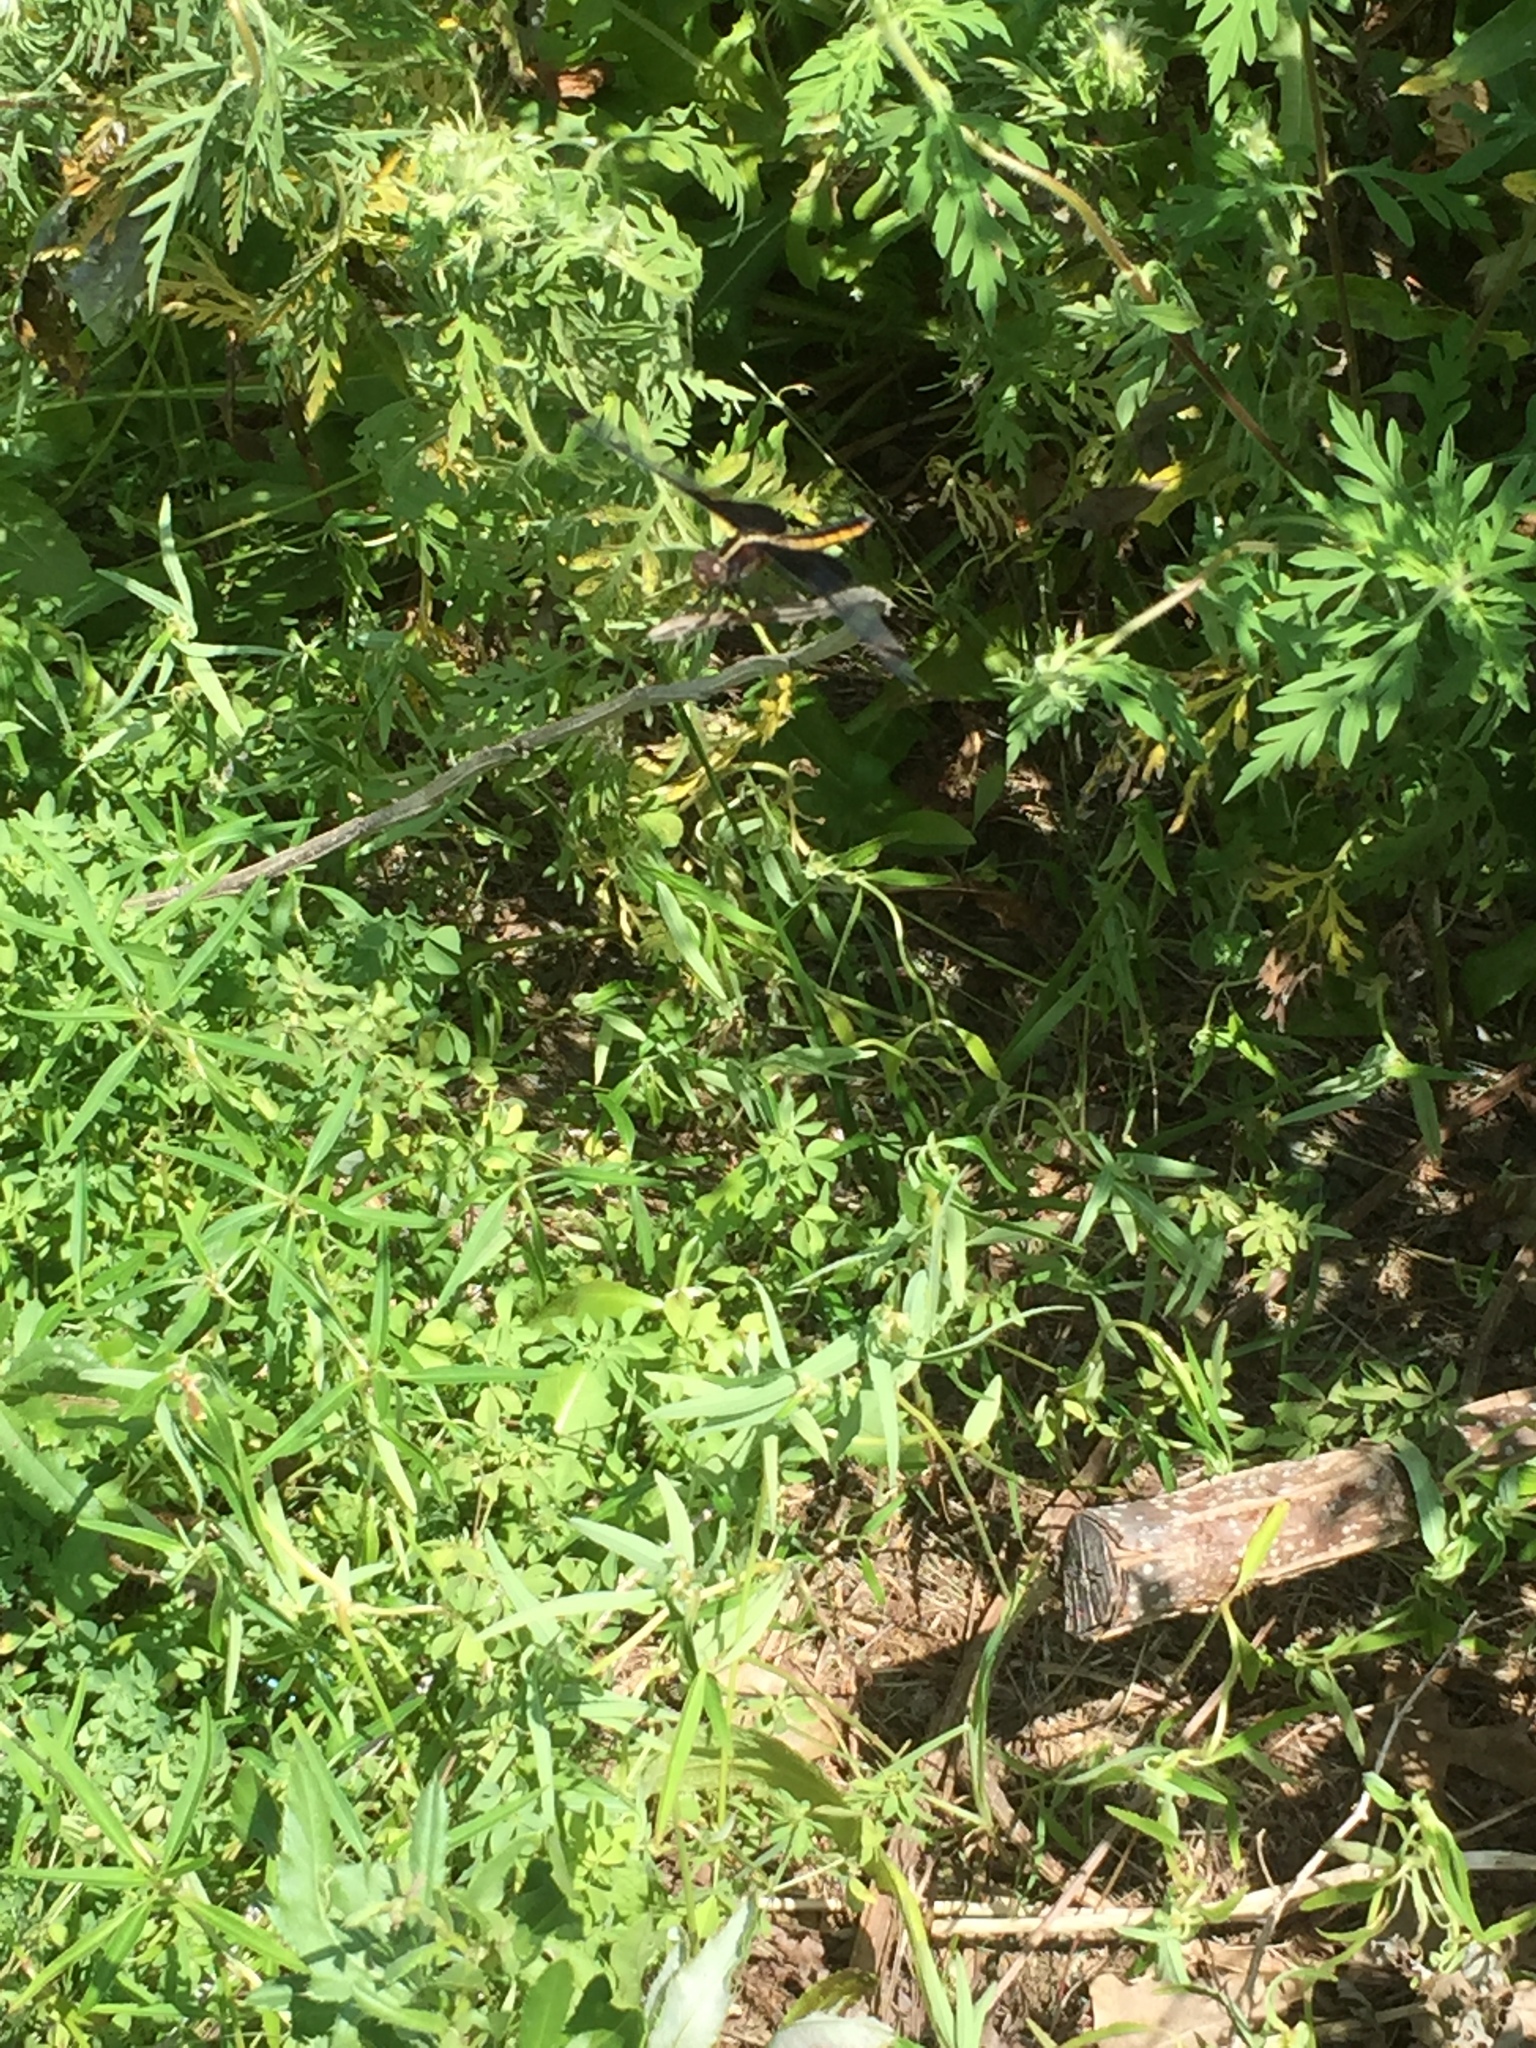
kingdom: Animalia
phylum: Arthropoda
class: Insecta
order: Odonata
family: Libellulidae
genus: Libellula
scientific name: Libellula luctuosa
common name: Widow skimmer
